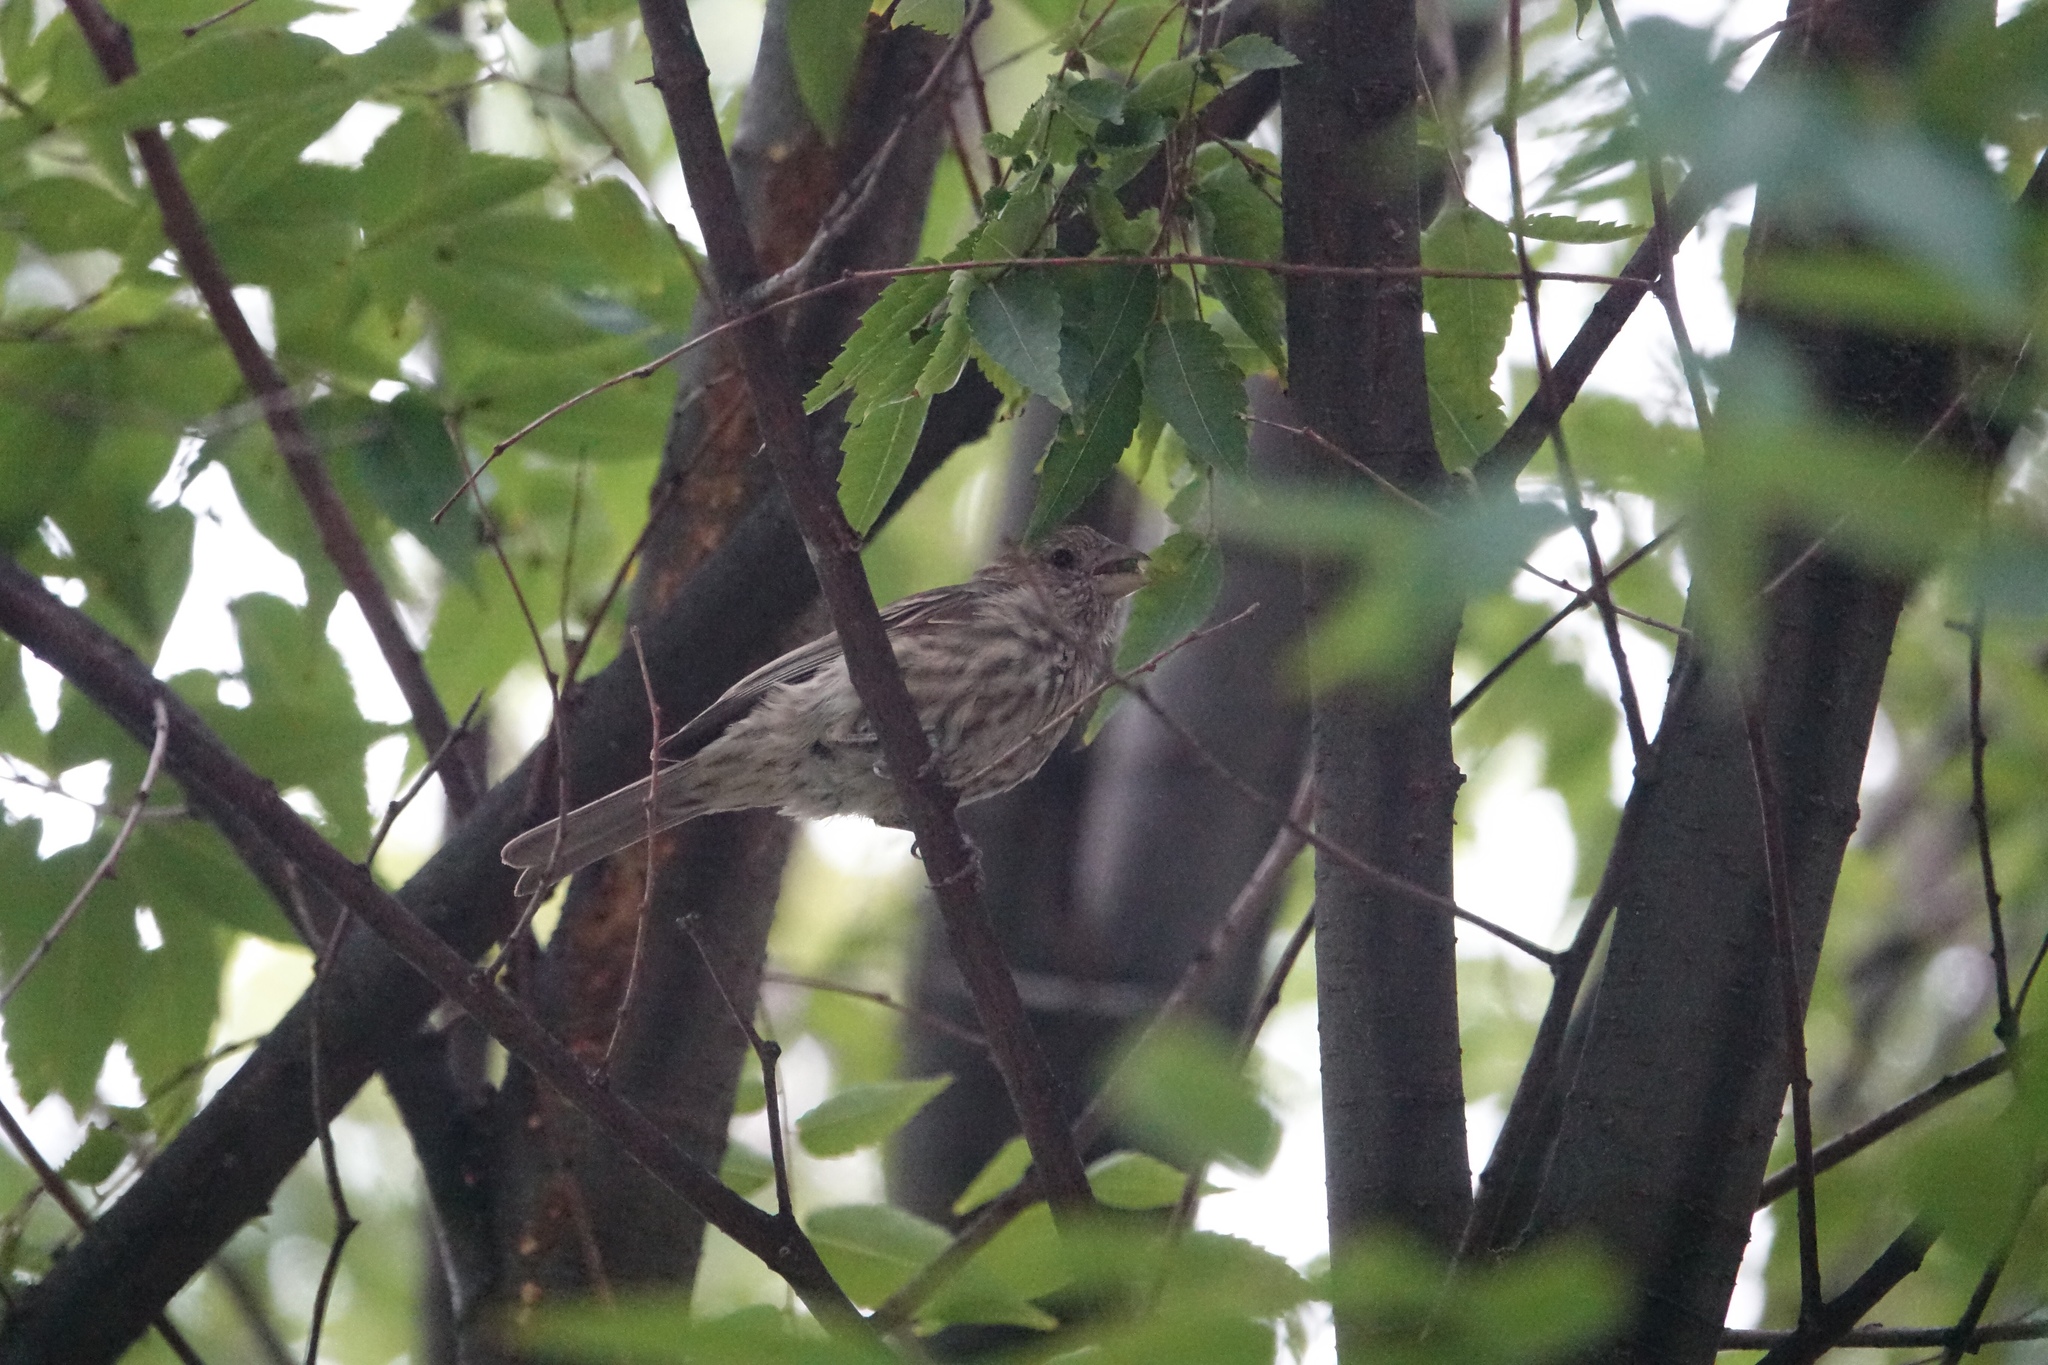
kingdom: Animalia
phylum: Chordata
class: Aves
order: Passeriformes
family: Fringillidae
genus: Haemorhous
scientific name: Haemorhous mexicanus
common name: House finch
